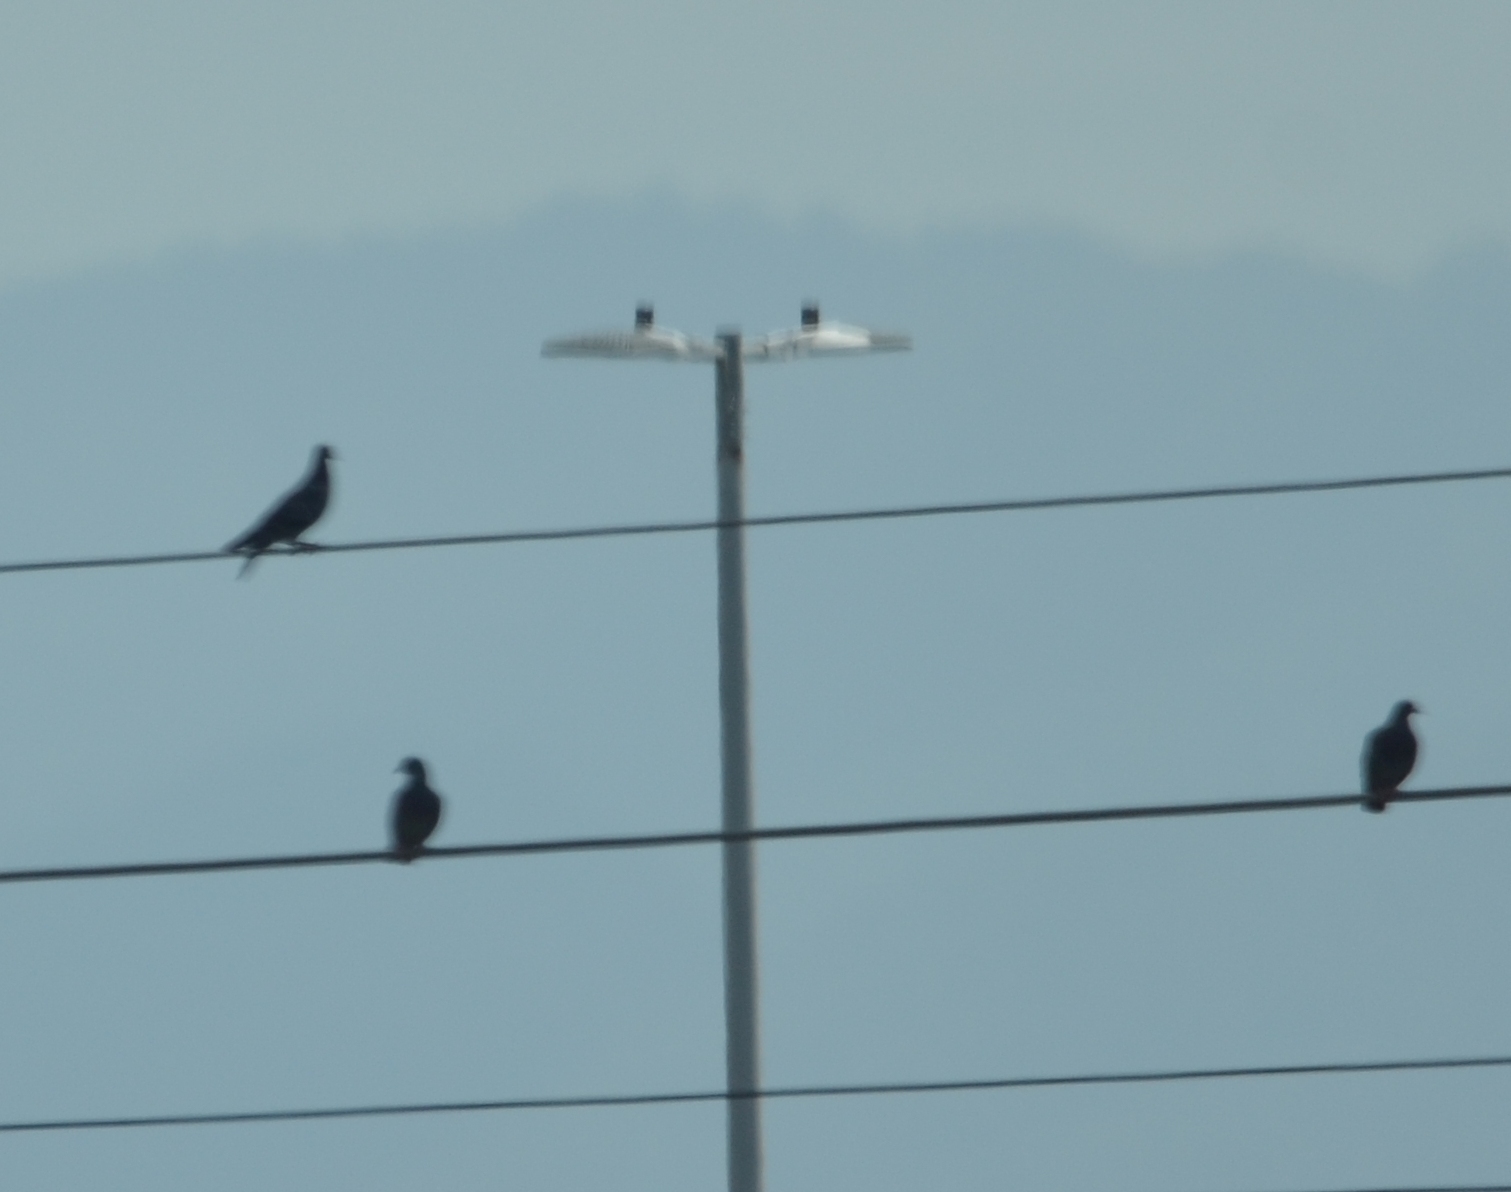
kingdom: Animalia
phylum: Chordata
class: Aves
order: Columbiformes
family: Columbidae
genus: Columba
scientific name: Columba livia
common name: Rock pigeon
